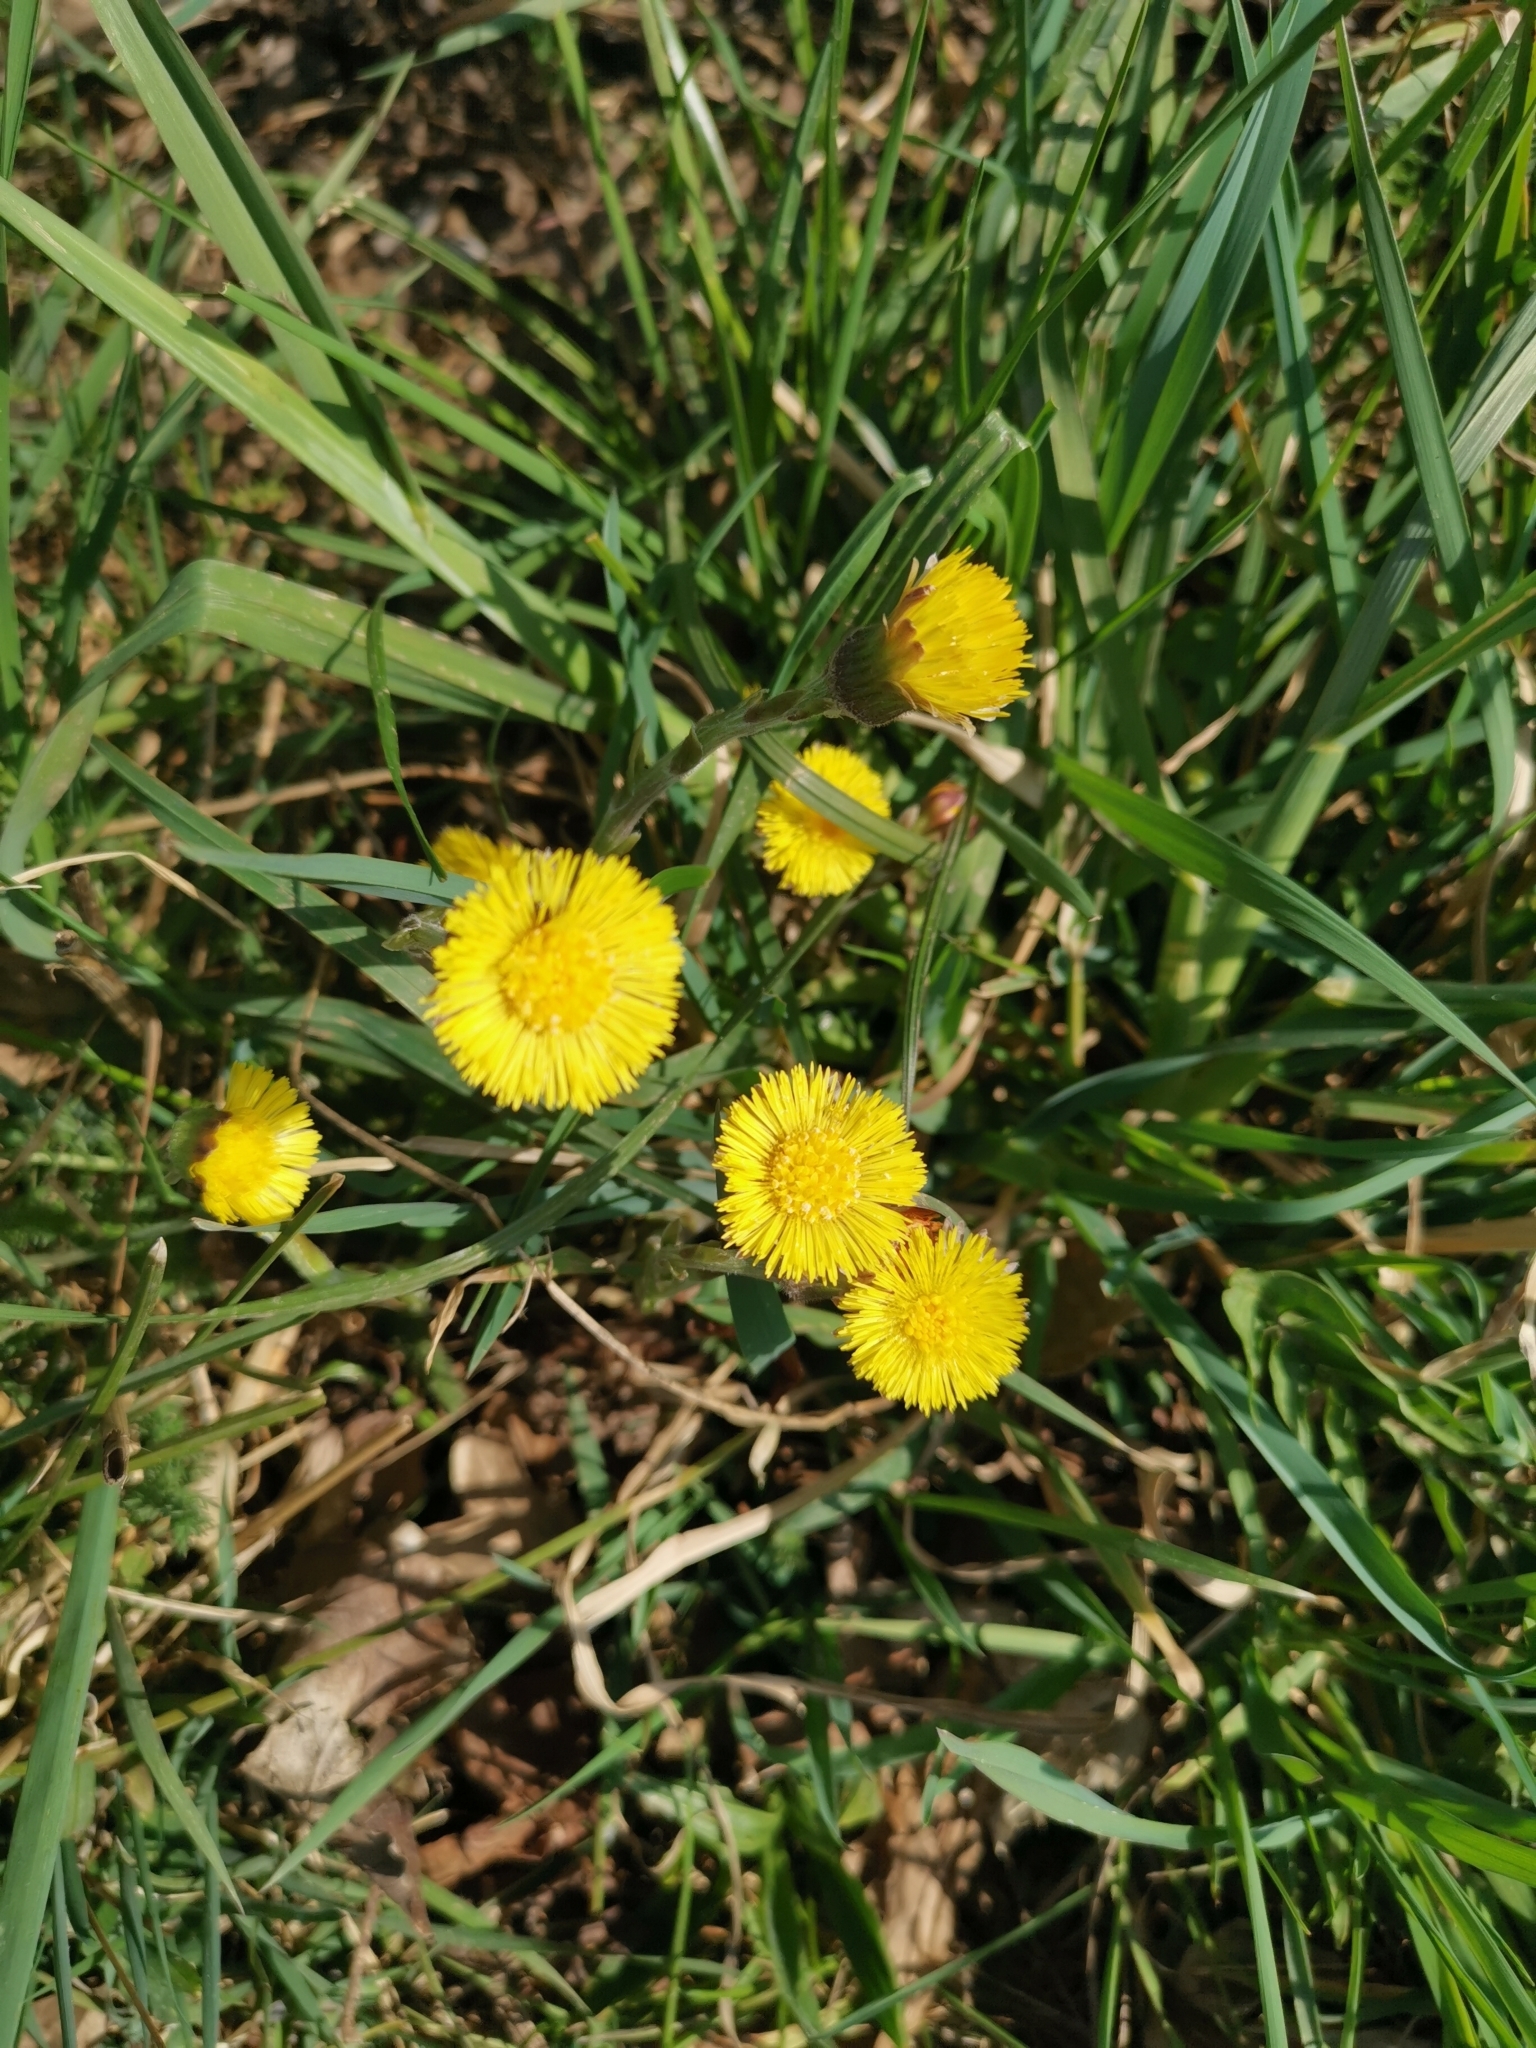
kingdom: Plantae
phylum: Tracheophyta
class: Magnoliopsida
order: Asterales
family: Asteraceae
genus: Tussilago
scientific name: Tussilago farfara
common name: Coltsfoot
